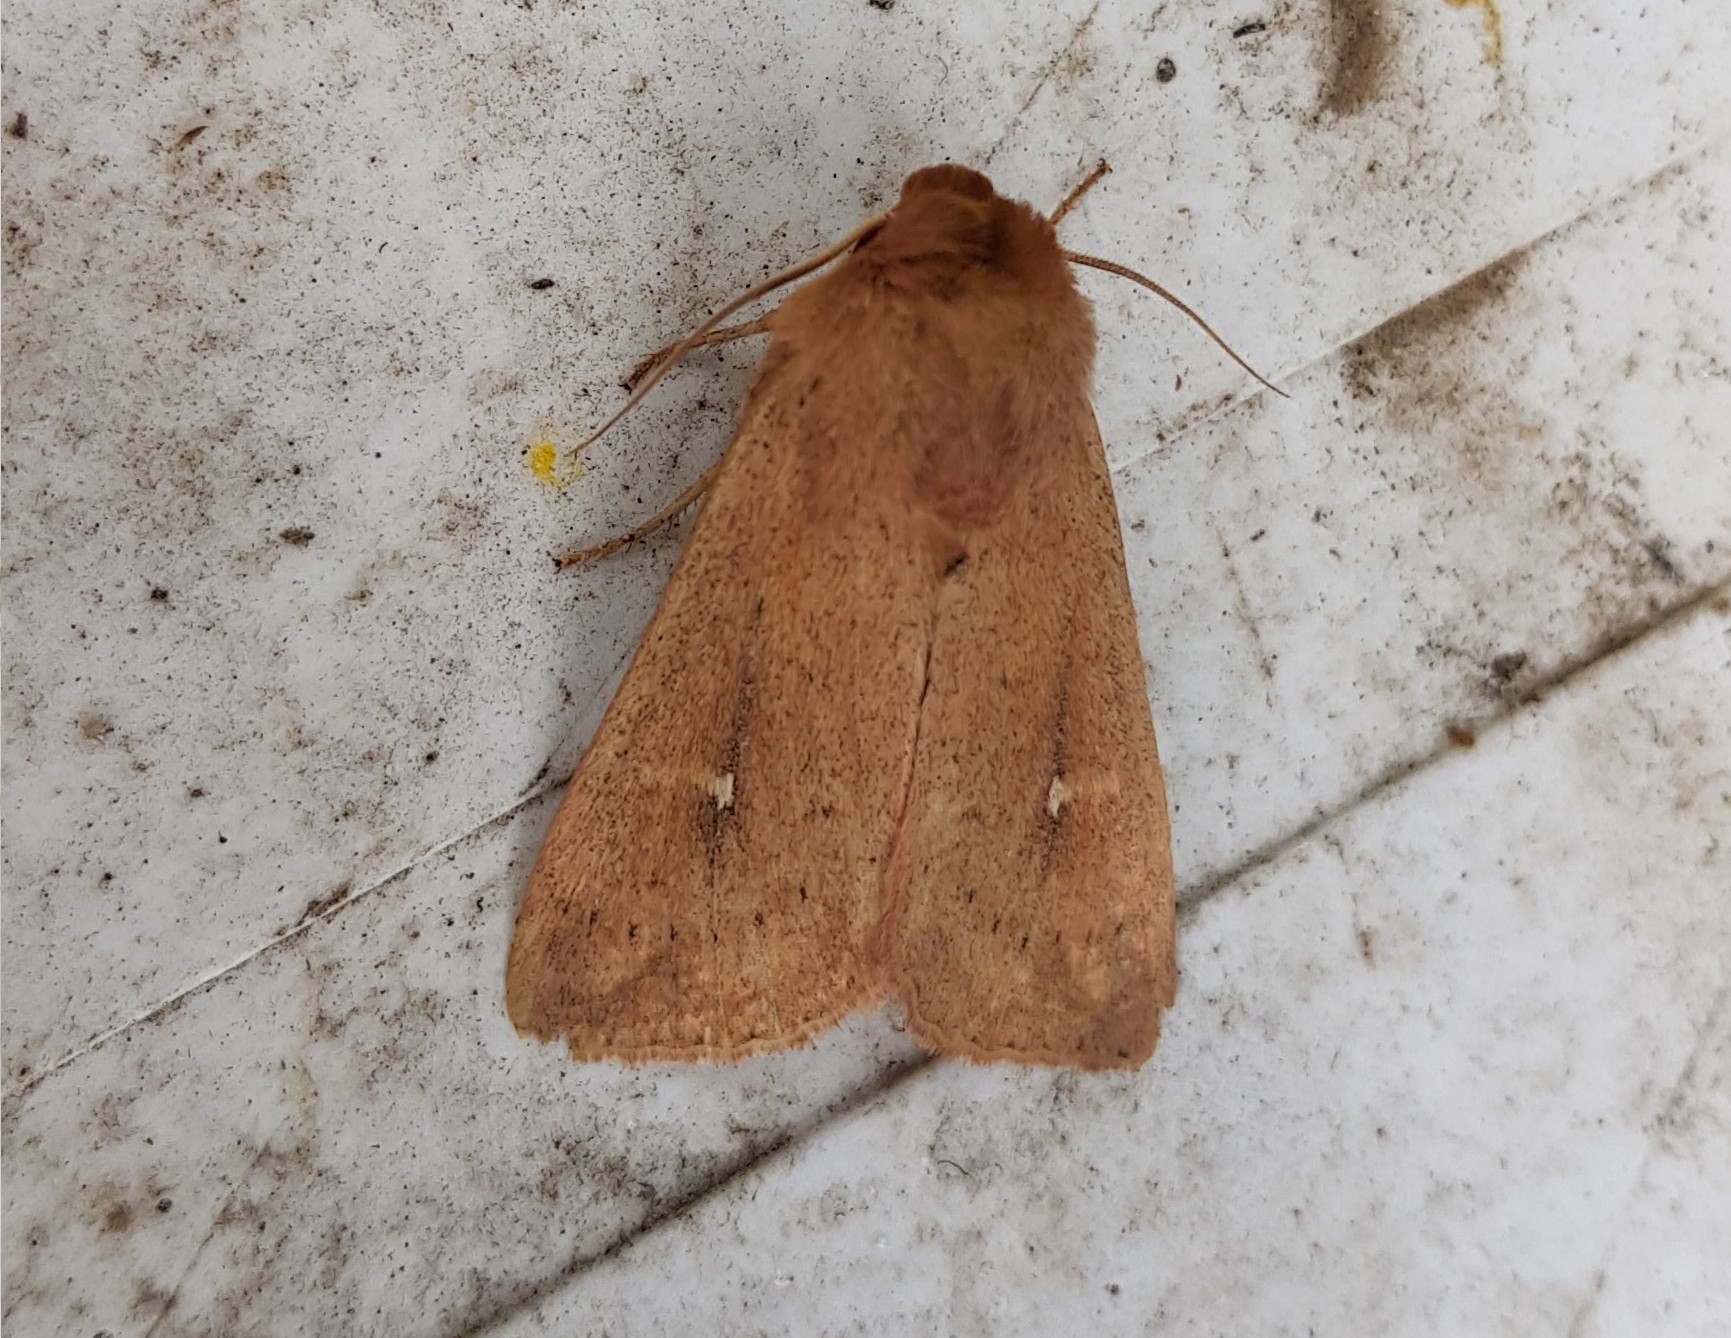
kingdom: Animalia
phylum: Arthropoda
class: Insecta
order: Lepidoptera
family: Noctuidae
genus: Mythimna
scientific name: Mythimna ferrago
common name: Clay
